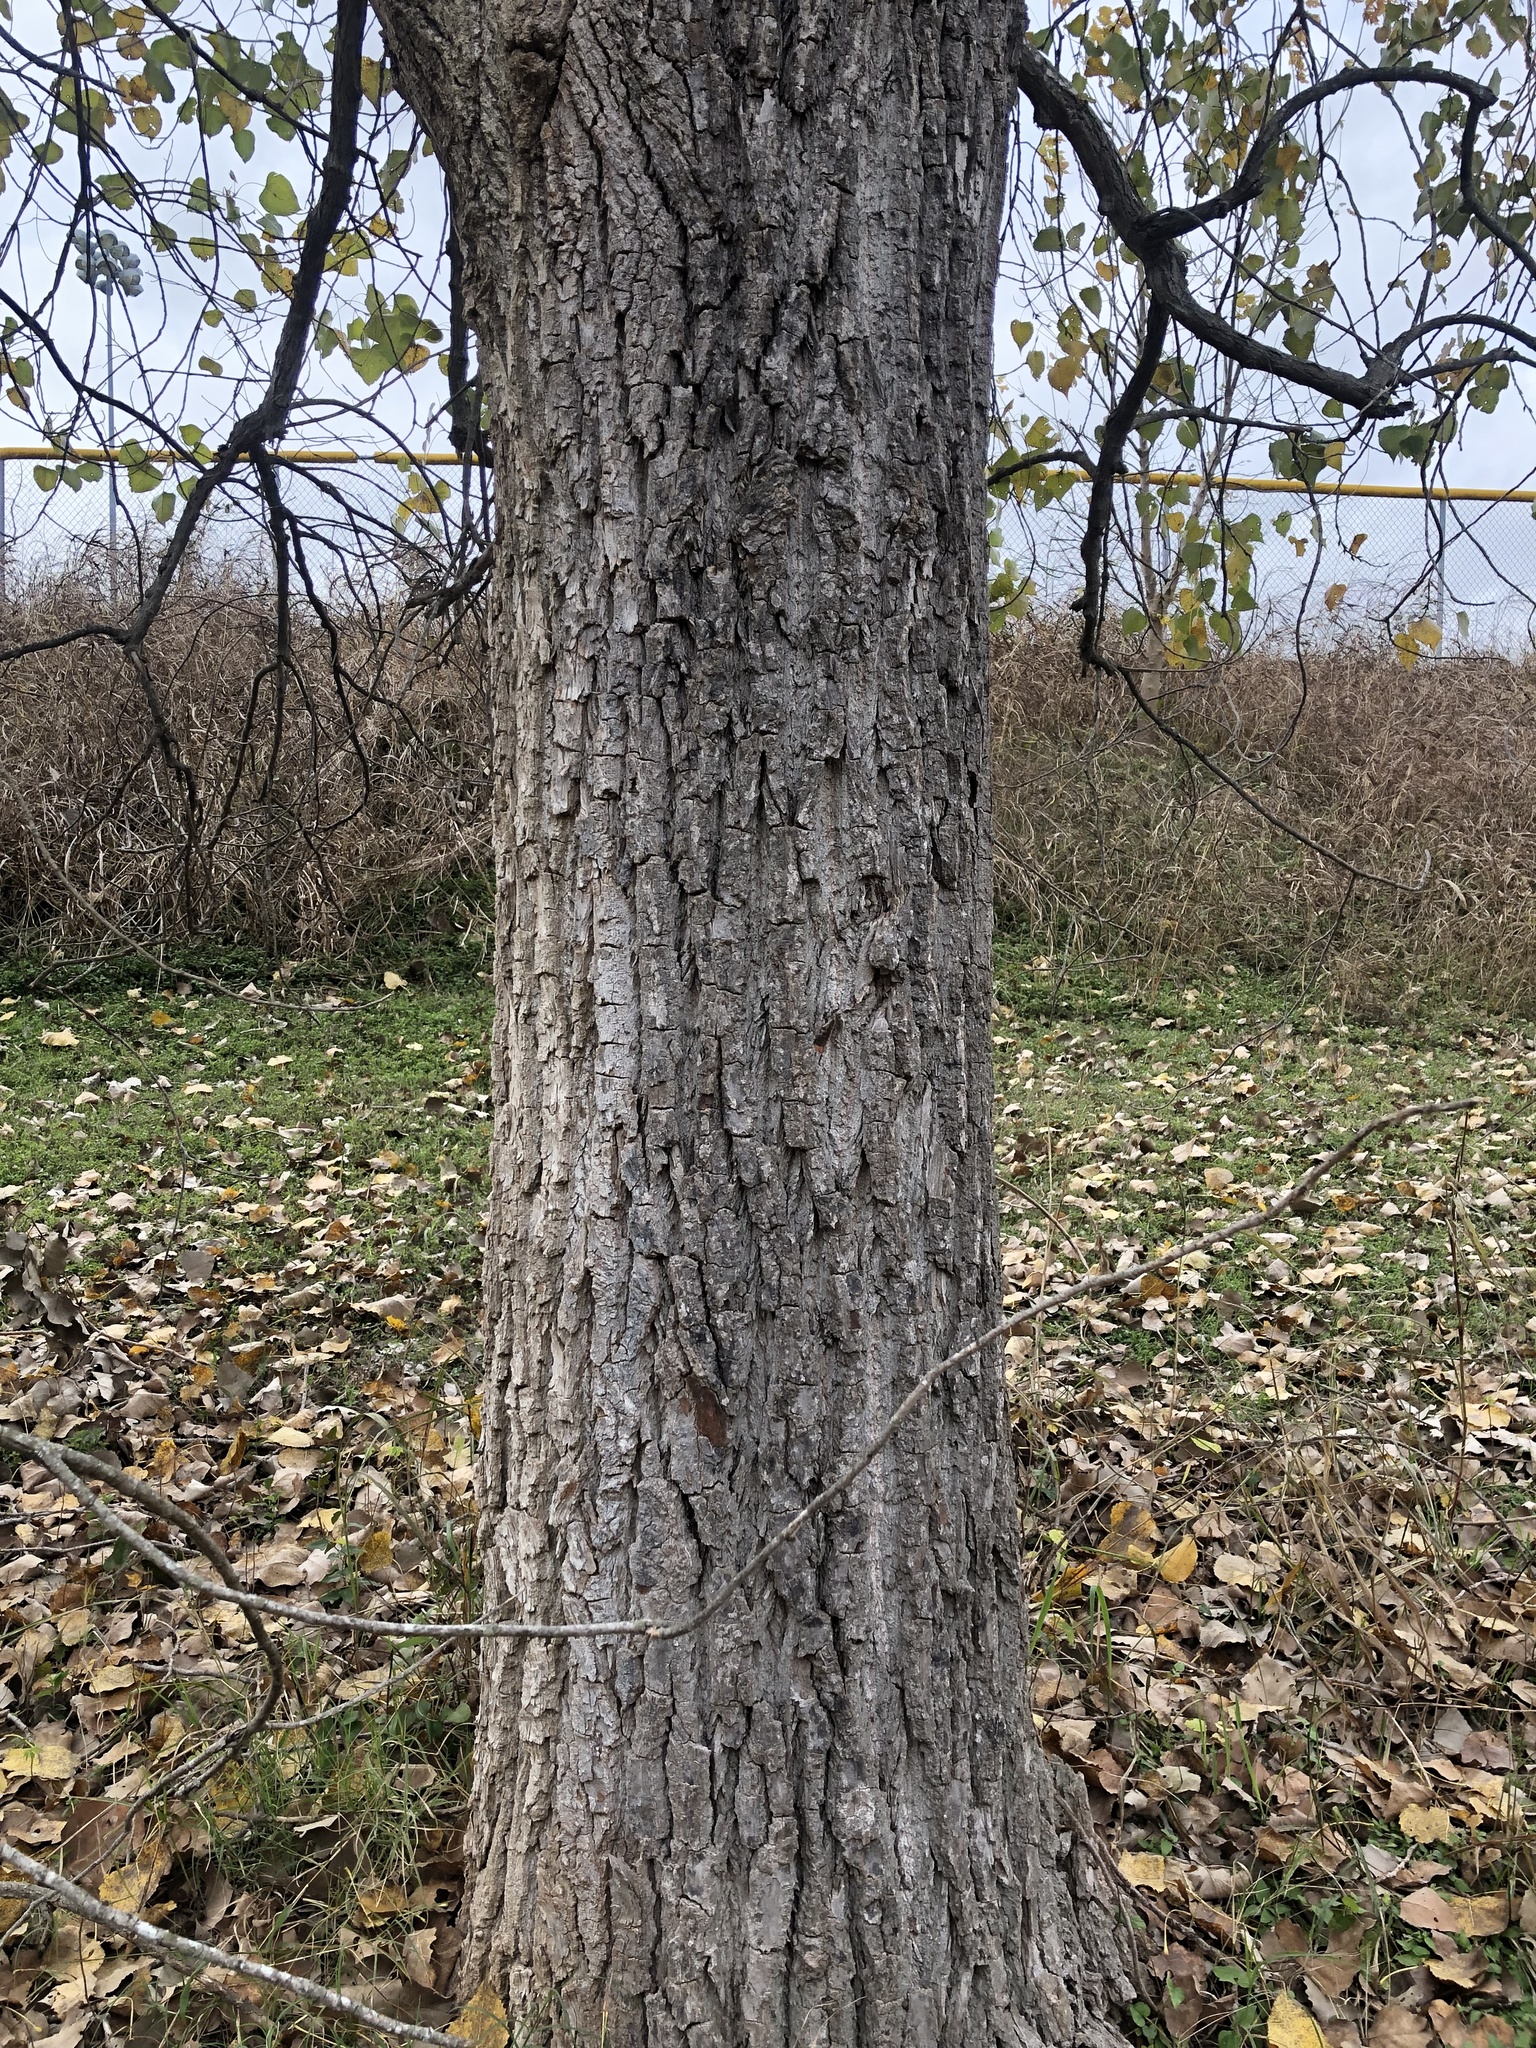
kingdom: Plantae
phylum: Tracheophyta
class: Magnoliopsida
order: Malpighiales
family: Salicaceae
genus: Populus
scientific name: Populus deltoides
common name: Eastern cottonwood
